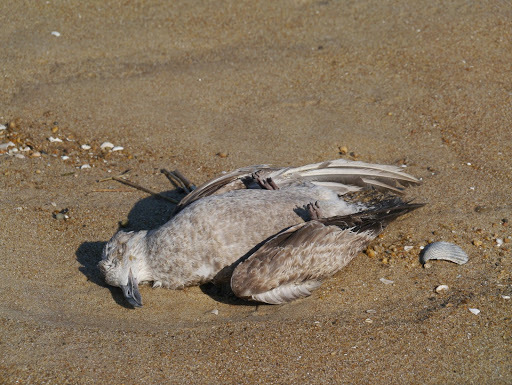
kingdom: Animalia
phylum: Chordata
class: Aves
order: Charadriiformes
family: Laridae
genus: Larus
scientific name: Larus argentatus
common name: Herring gull
